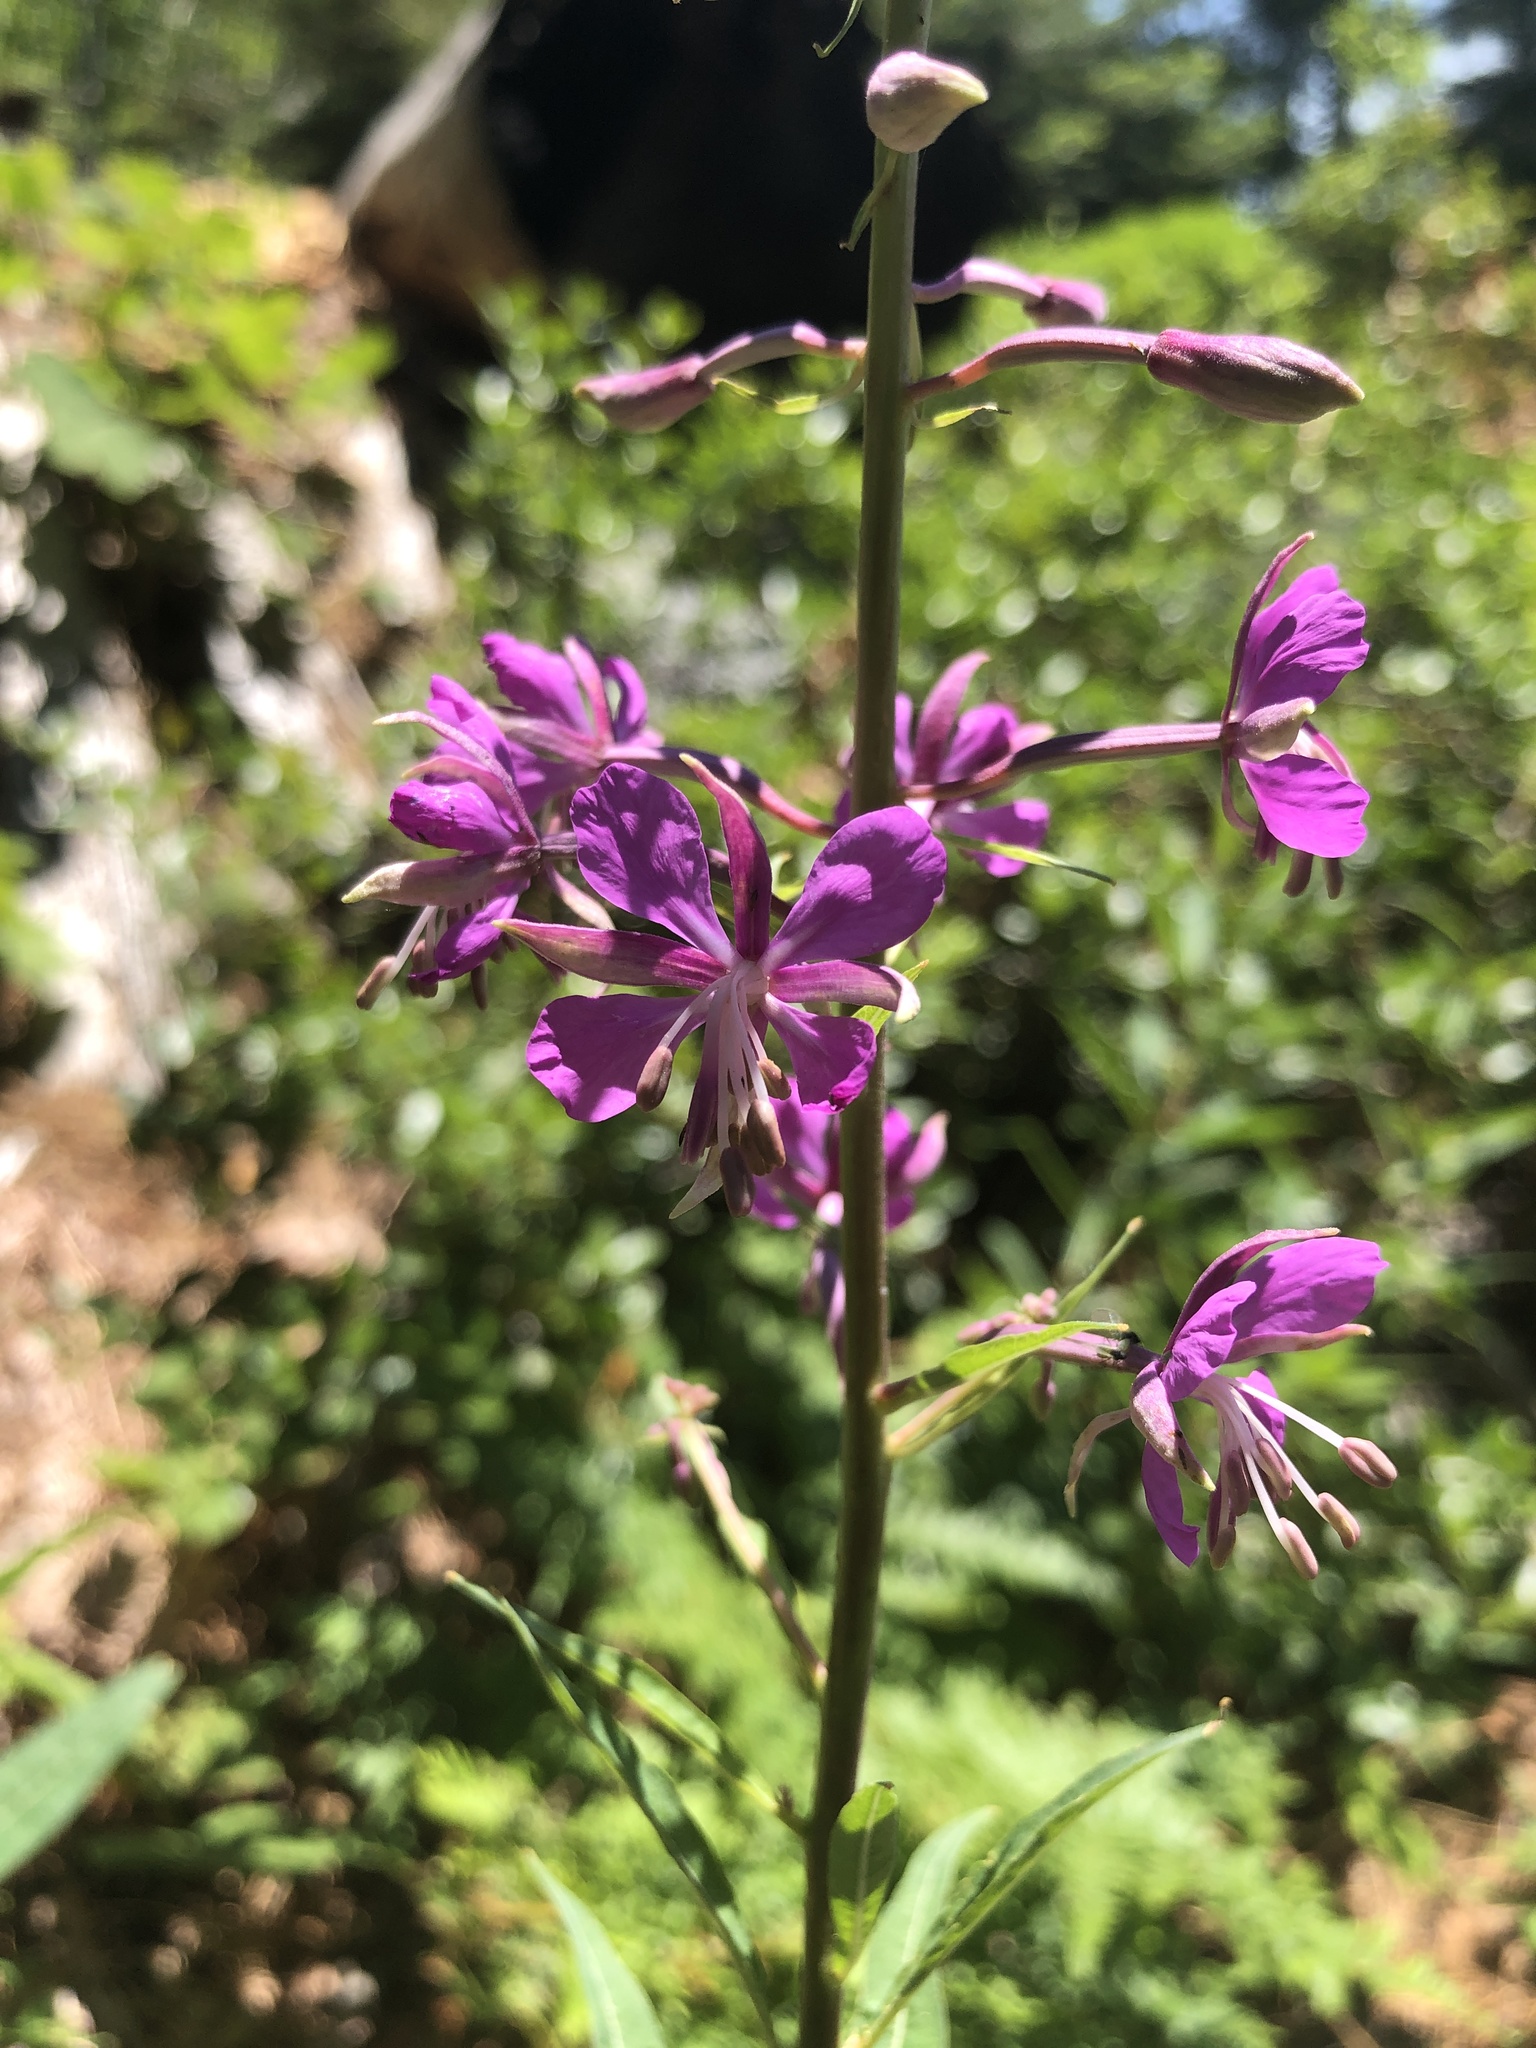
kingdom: Plantae
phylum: Tracheophyta
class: Magnoliopsida
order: Myrtales
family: Onagraceae
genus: Chamaenerion
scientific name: Chamaenerion angustifolium
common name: Fireweed
